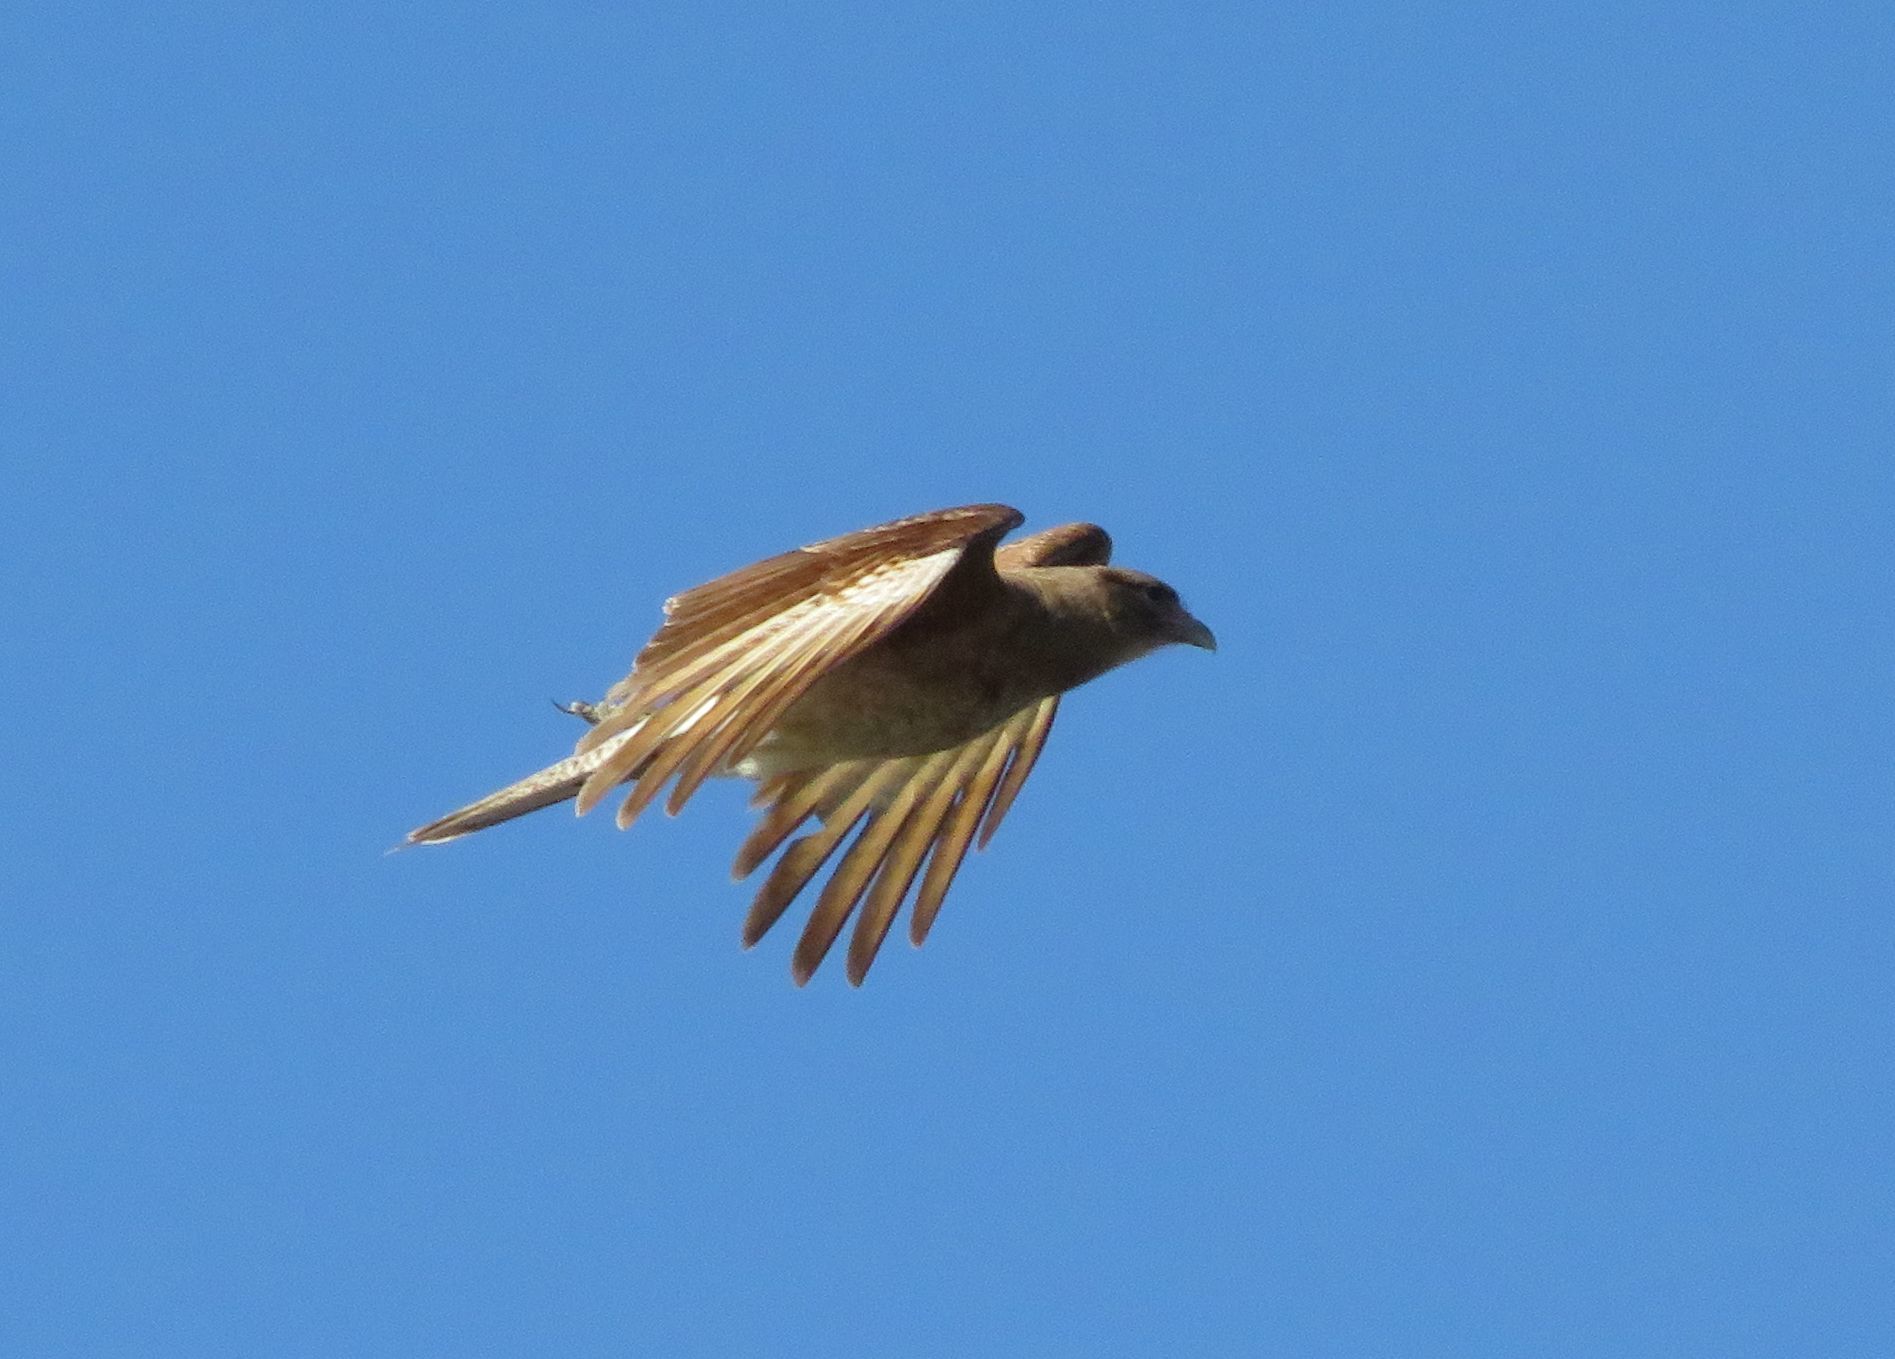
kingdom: Animalia
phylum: Chordata
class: Aves
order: Falconiformes
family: Falconidae
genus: Daptrius
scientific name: Daptrius
